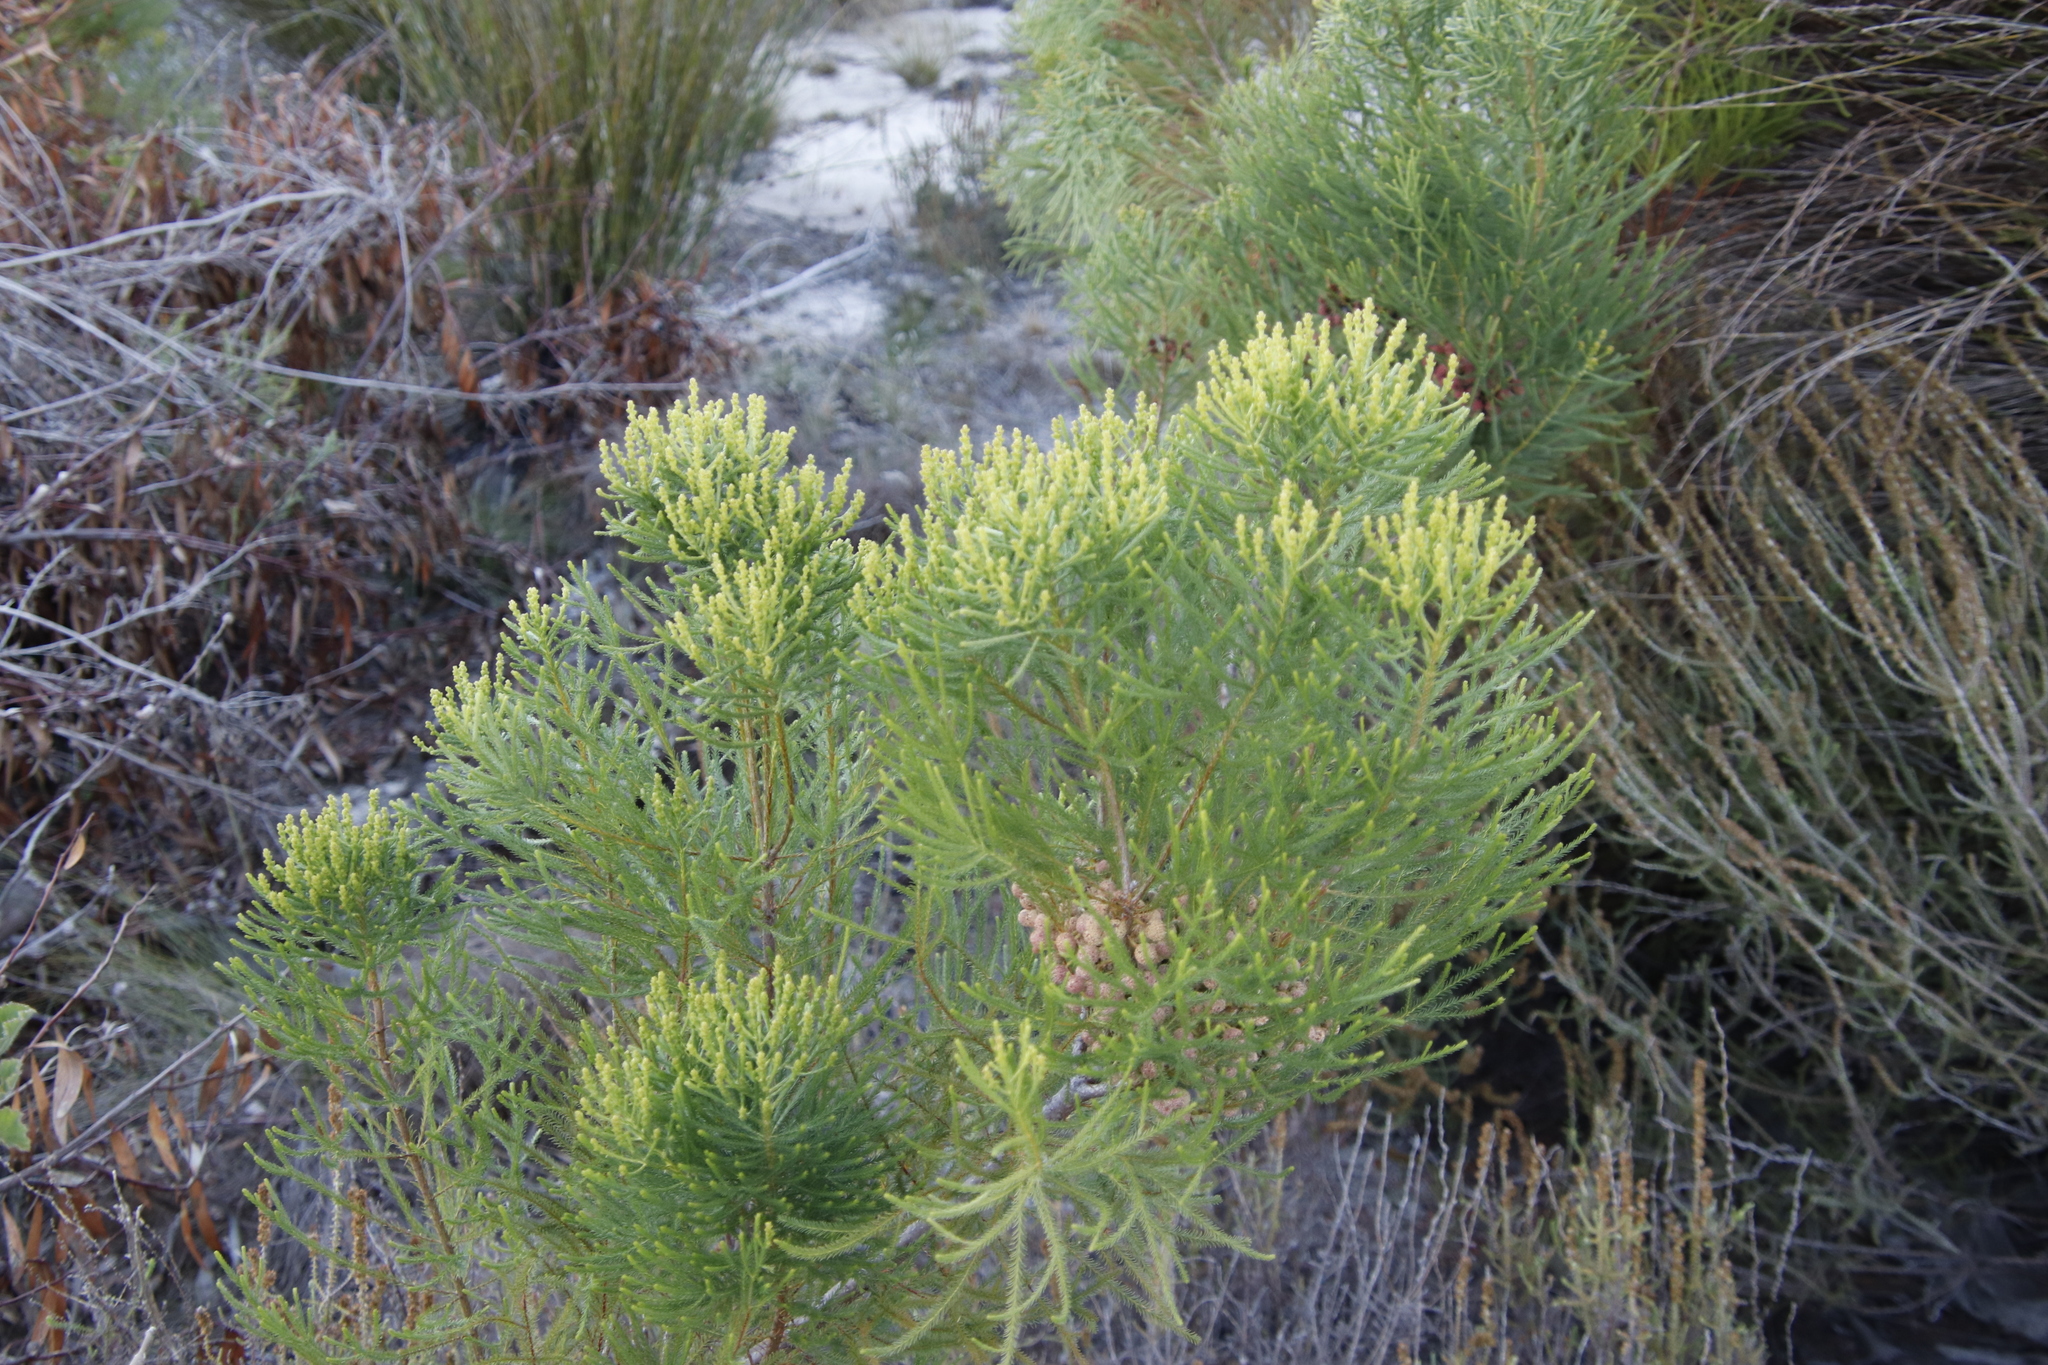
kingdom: Plantae
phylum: Tracheophyta
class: Magnoliopsida
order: Bruniales
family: Bruniaceae
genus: Berzelia
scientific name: Berzelia lanuginosa
